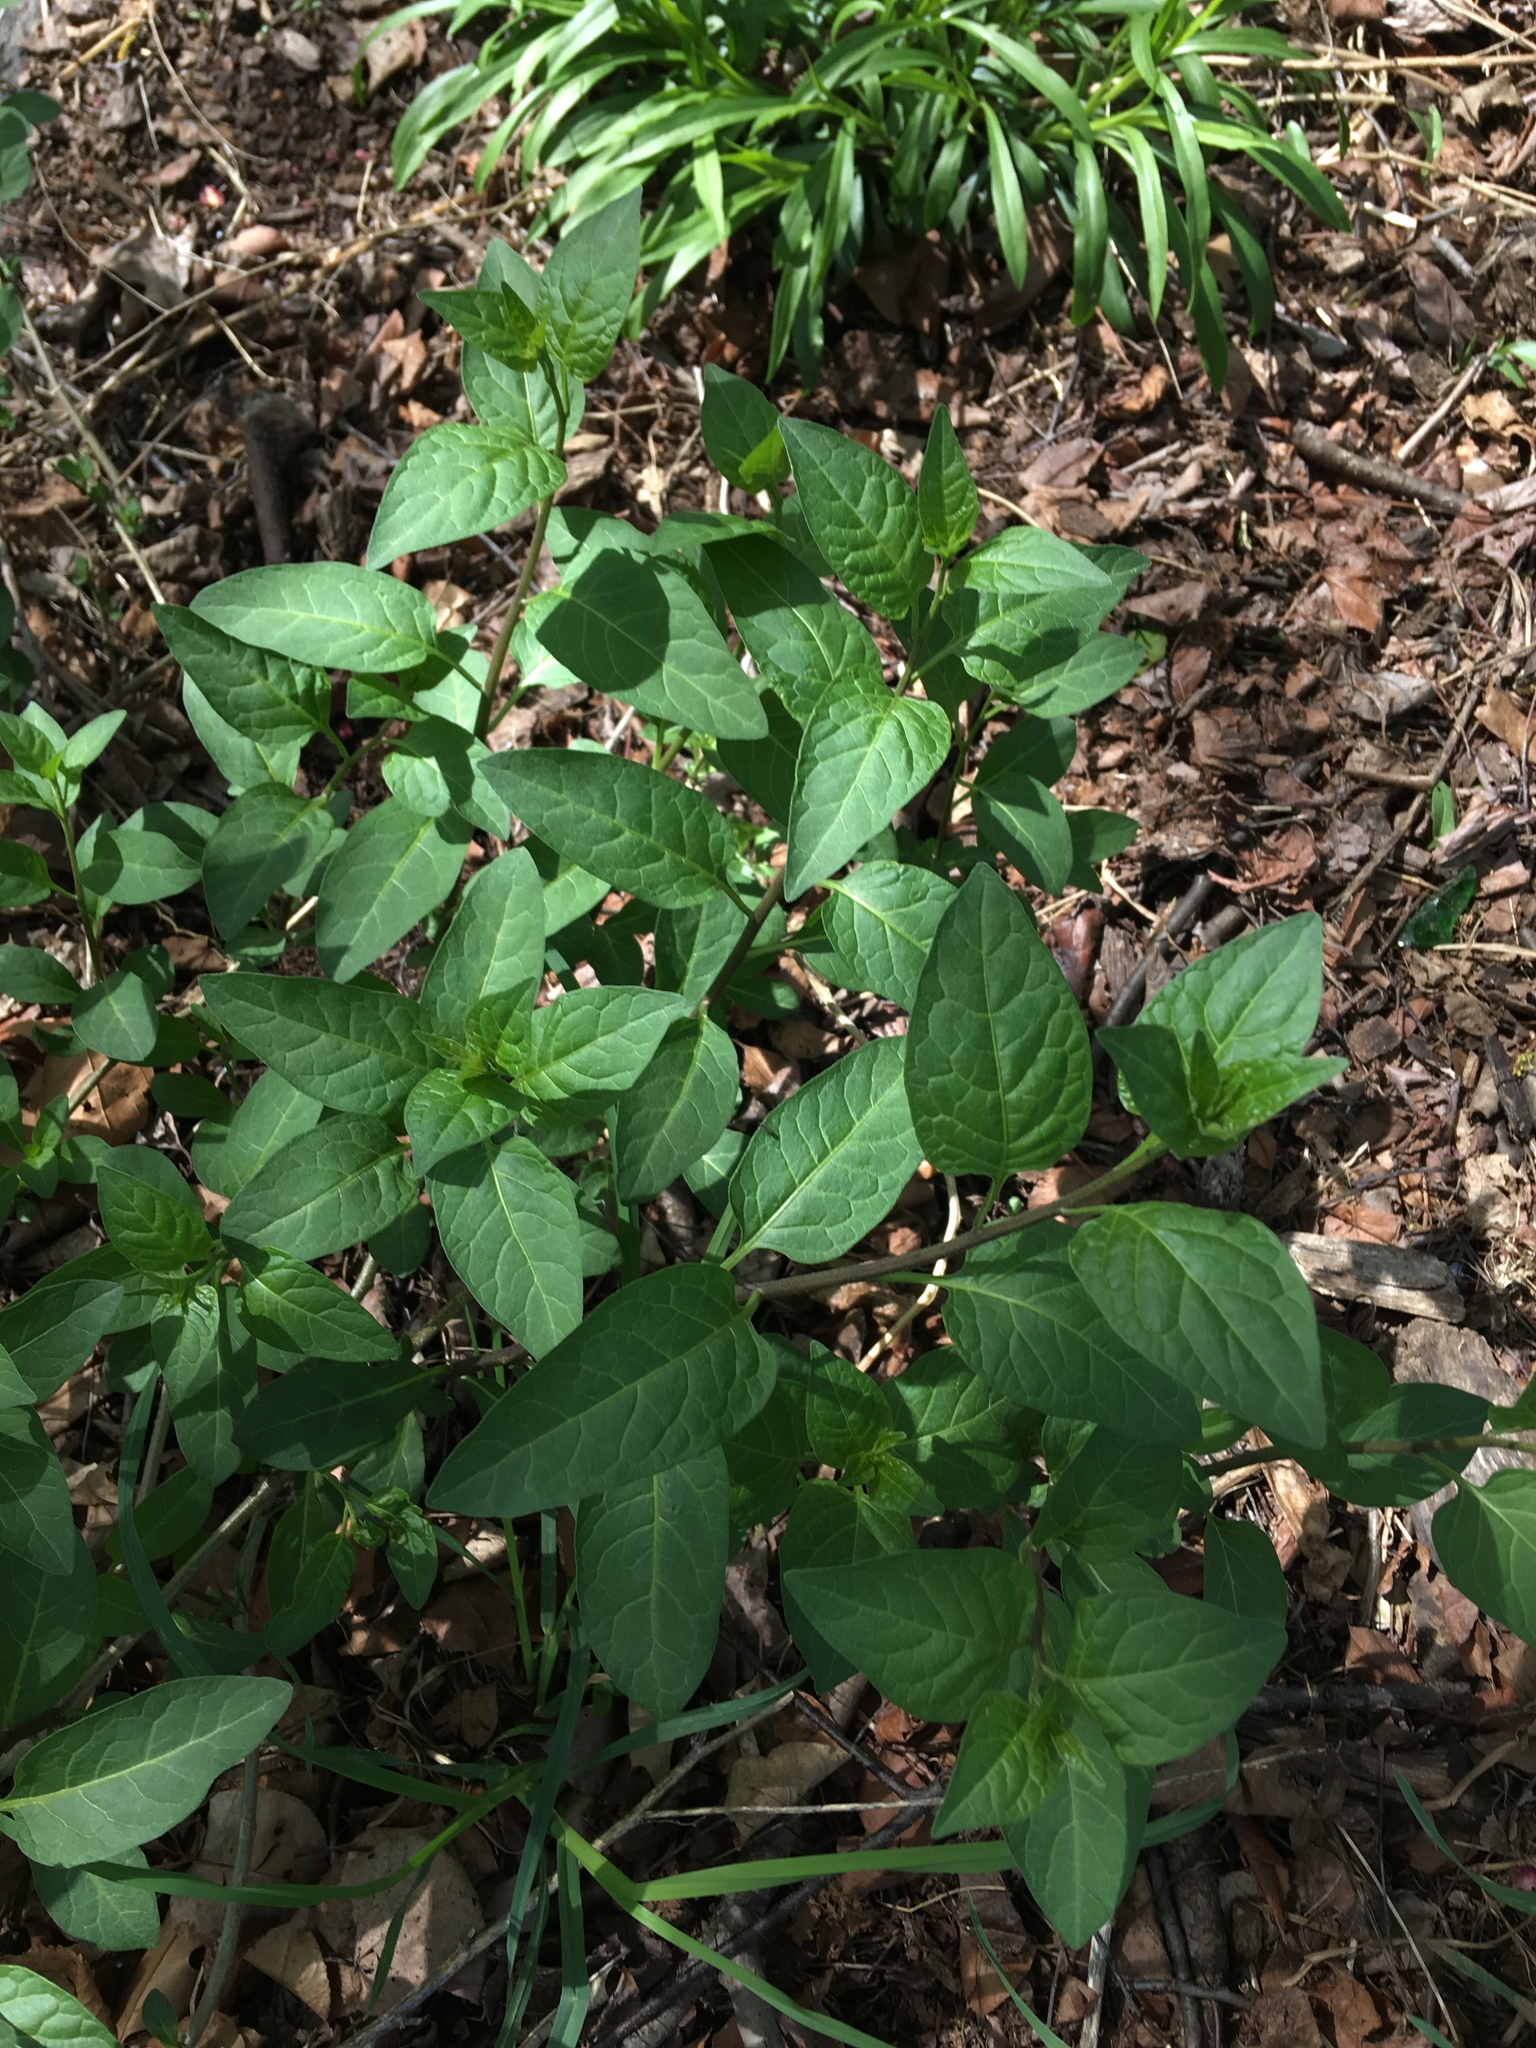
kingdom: Plantae
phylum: Tracheophyta
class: Magnoliopsida
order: Solanales
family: Solanaceae
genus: Solanum
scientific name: Solanum dulcamara
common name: Climbing nightshade
